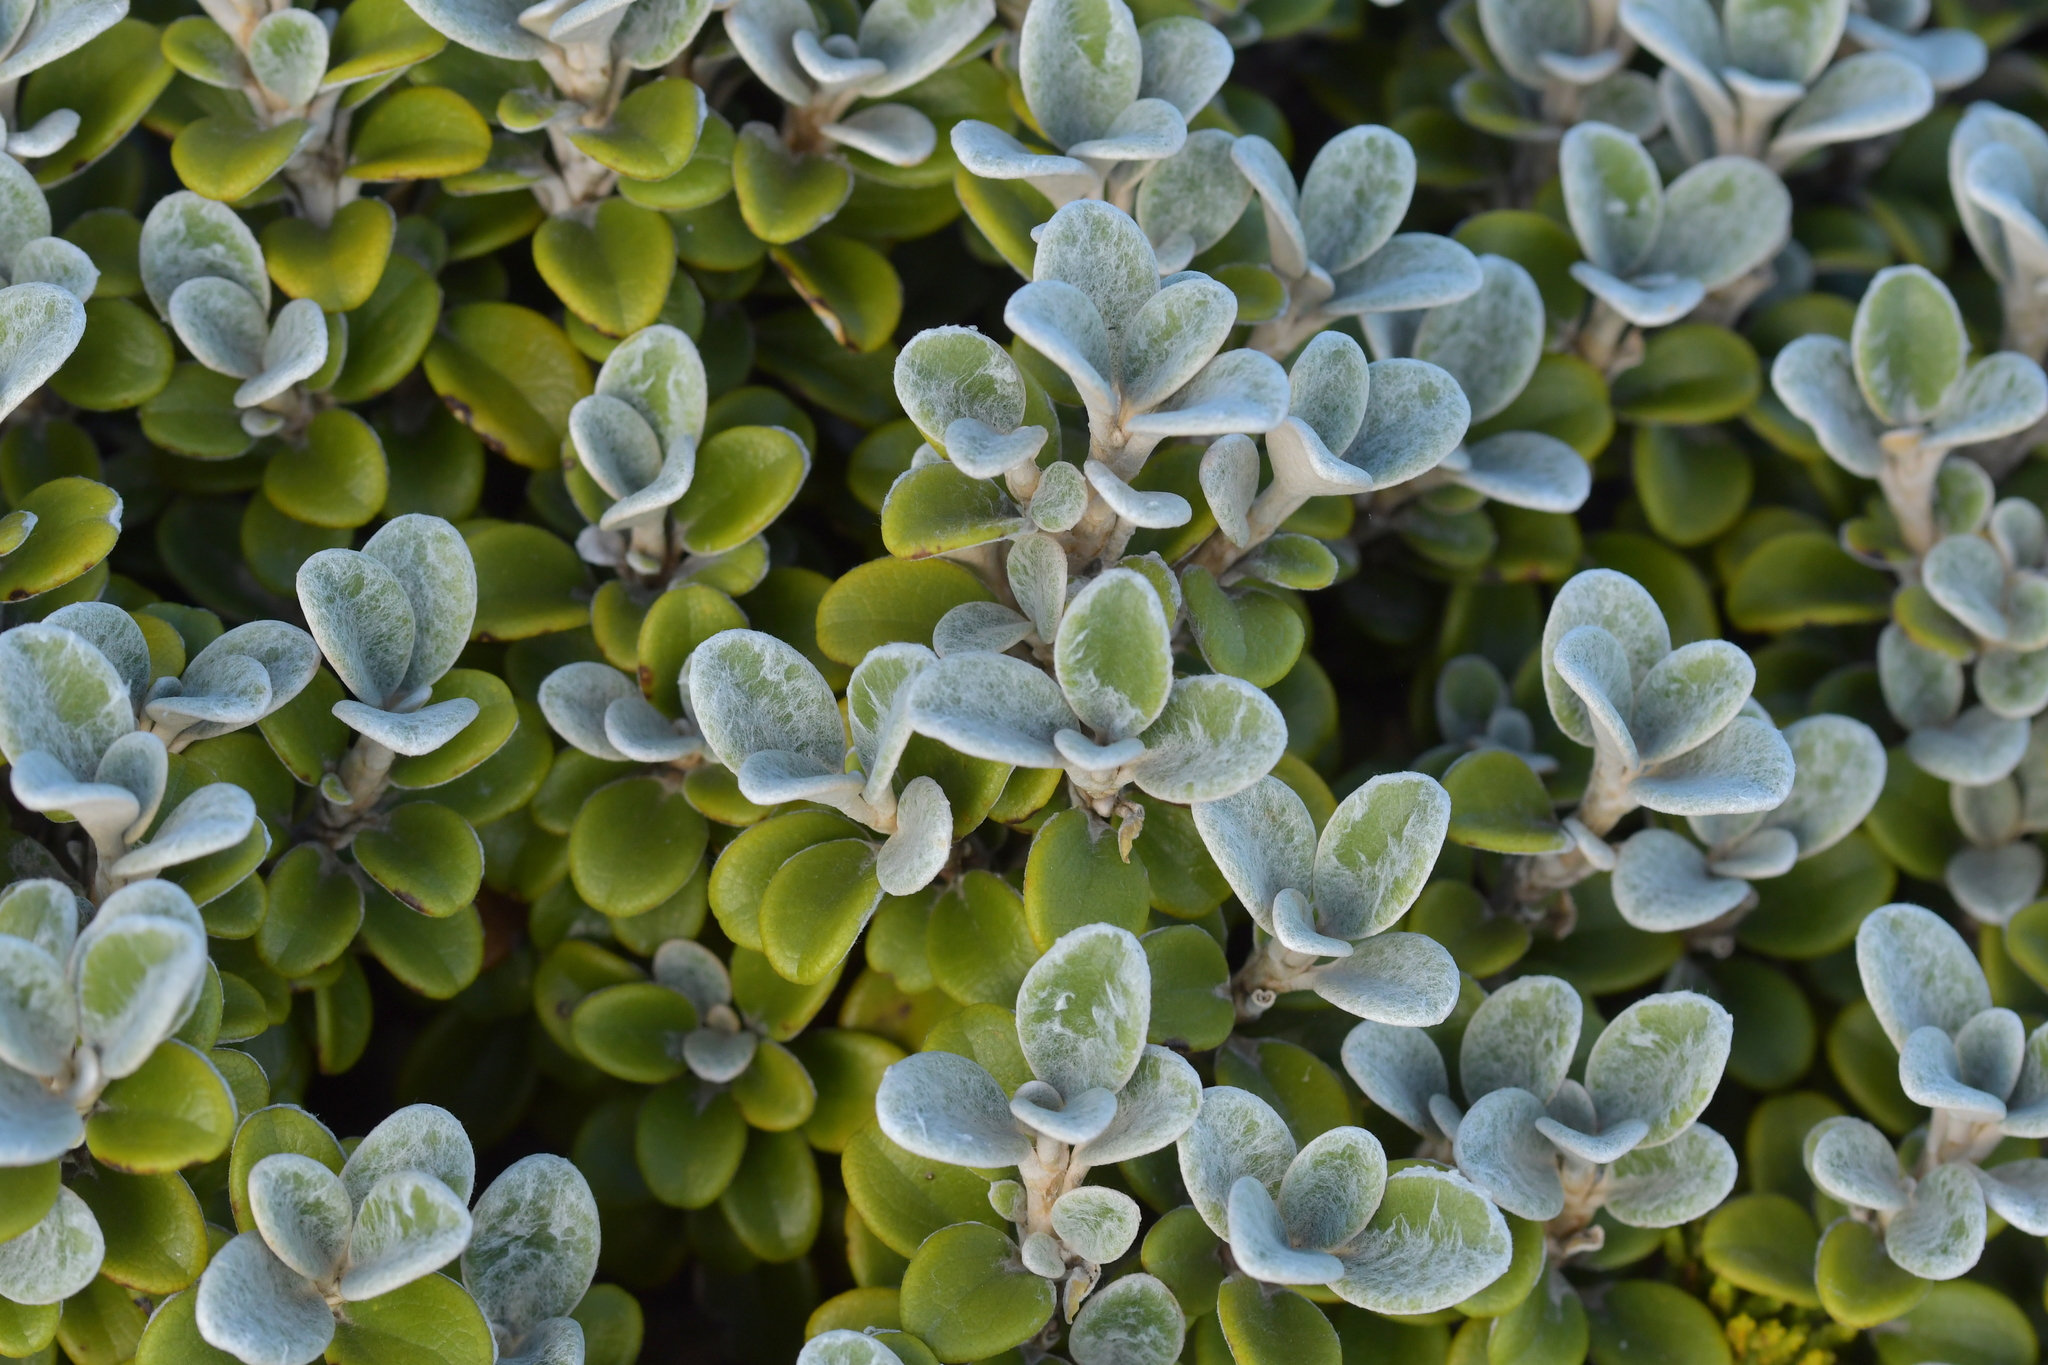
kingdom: Plantae
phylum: Tracheophyta
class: Magnoliopsida
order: Asterales
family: Asteraceae
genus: Brachyglottis
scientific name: Brachyglottis bidwillii
